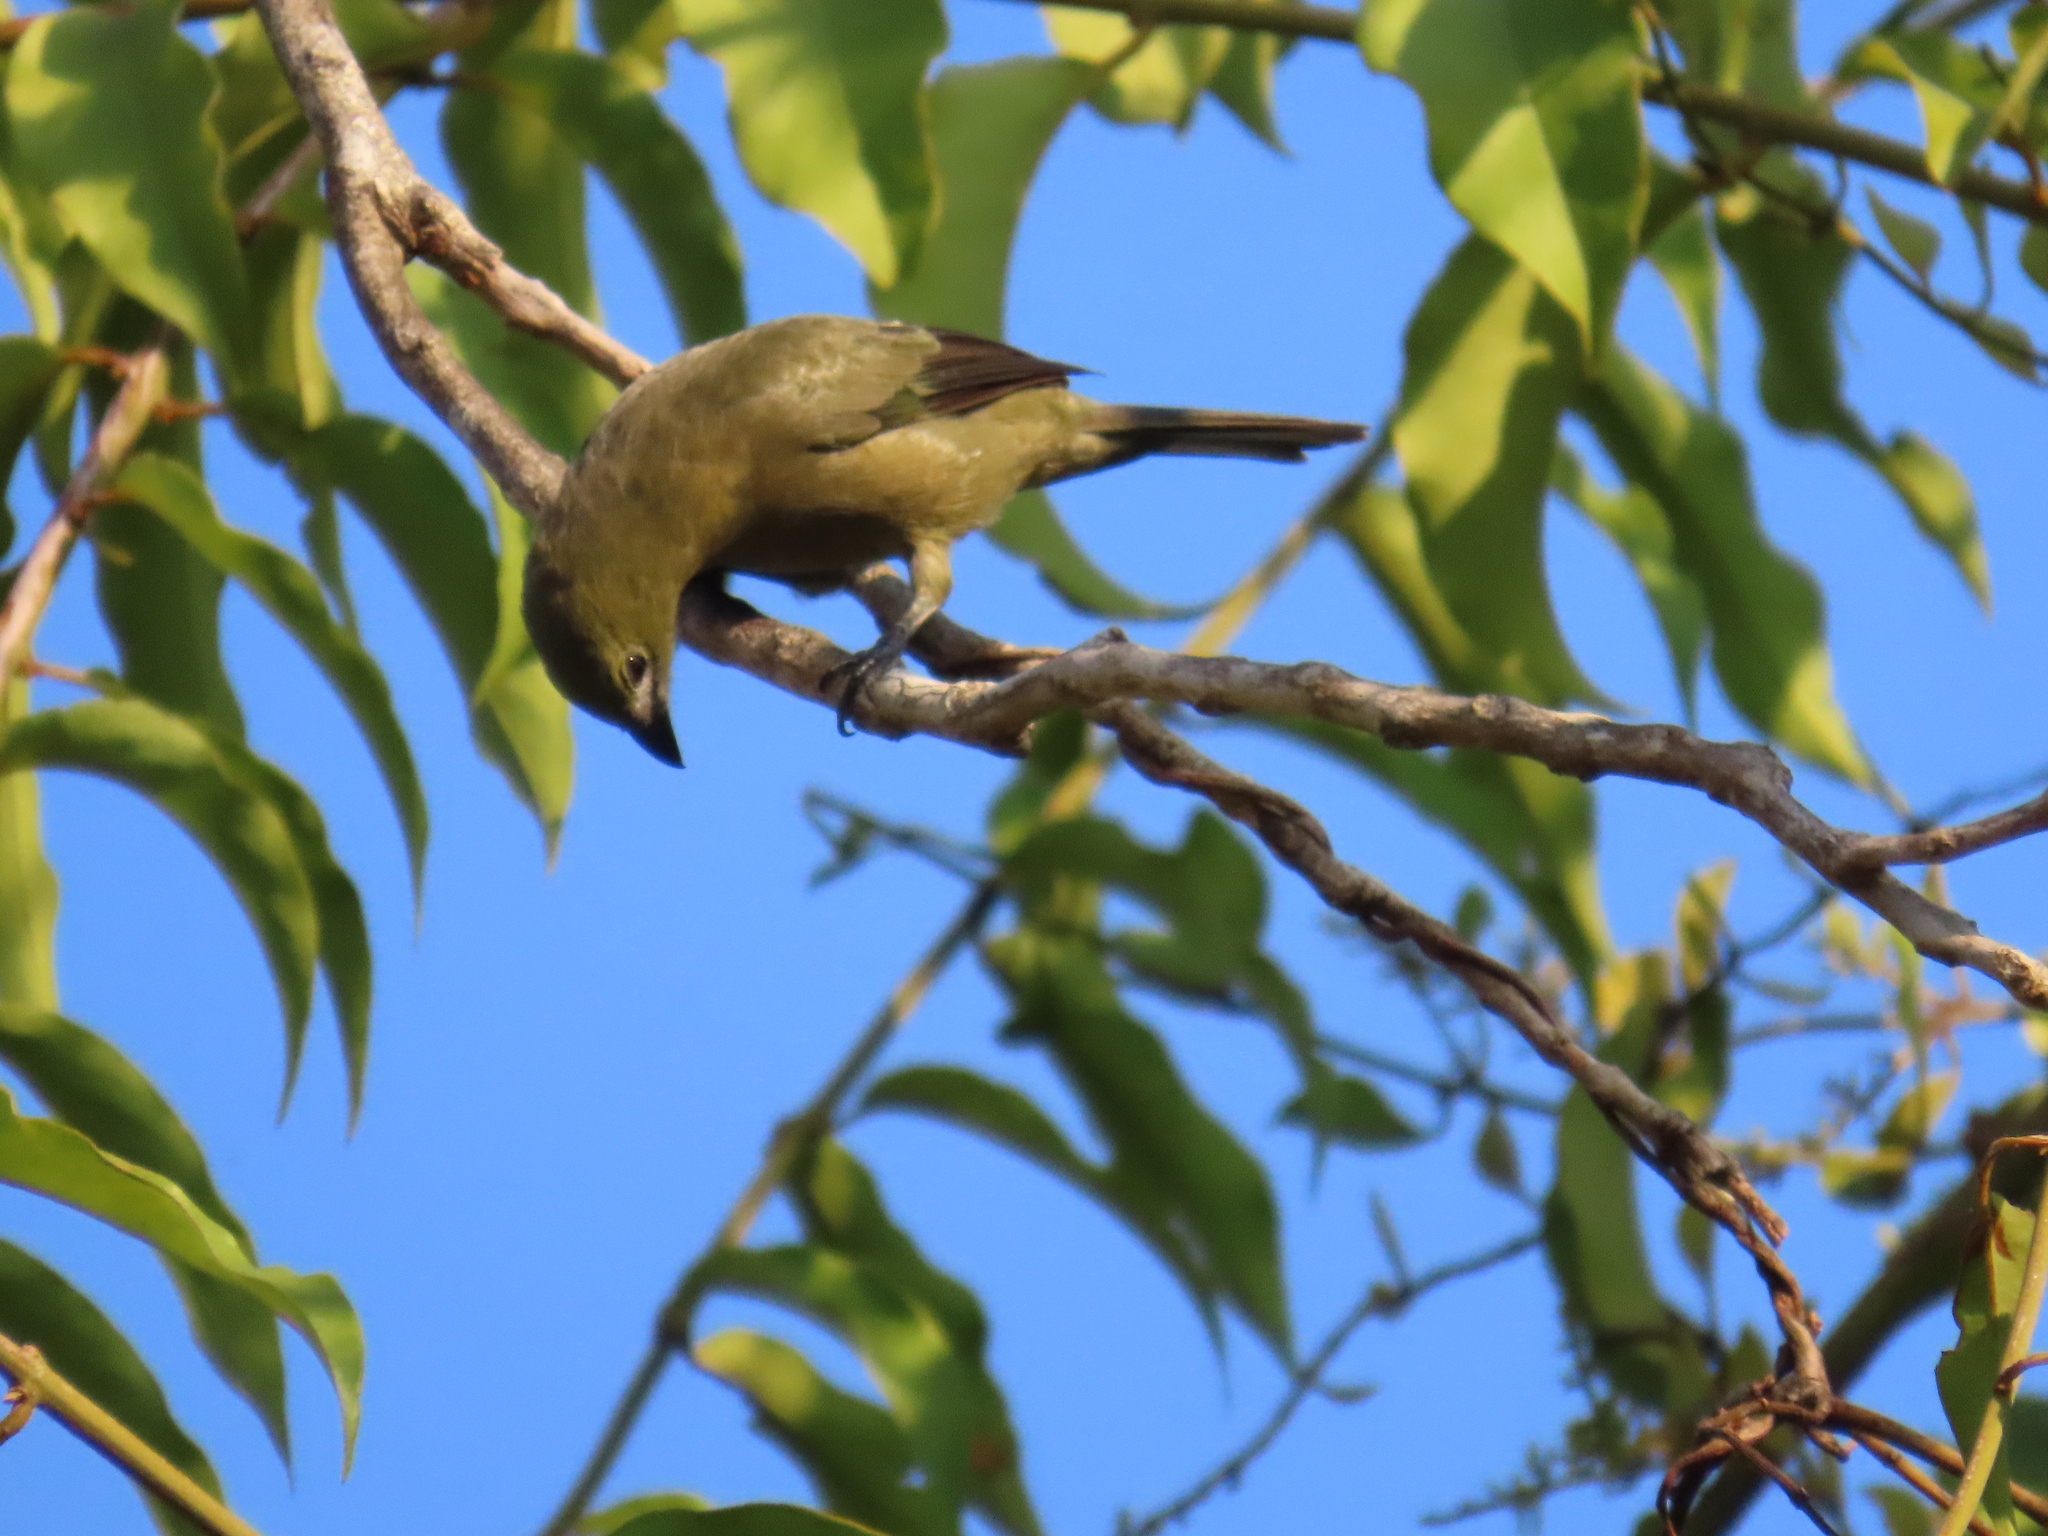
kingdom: Animalia
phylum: Chordata
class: Aves
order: Passeriformes
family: Thraupidae
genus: Thraupis
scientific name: Thraupis palmarum
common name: Palm tanager
